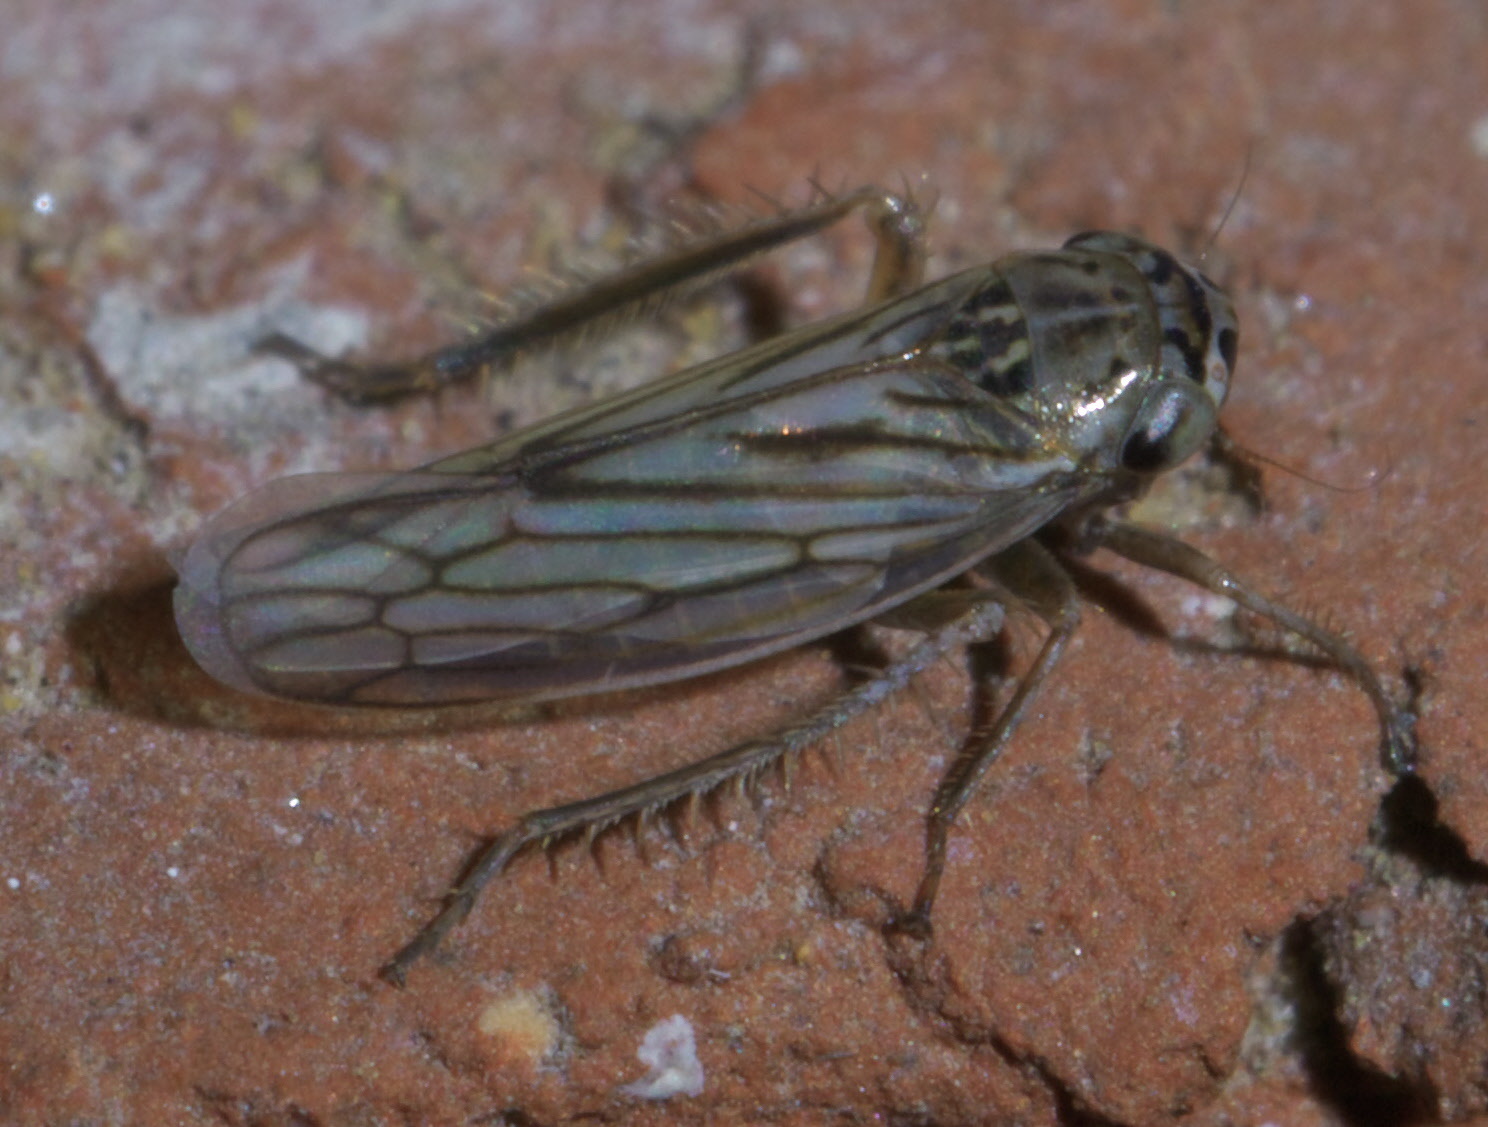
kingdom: Animalia
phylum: Arthropoda
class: Insecta
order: Hemiptera
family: Cicadellidae
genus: Exitianus
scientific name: Exitianus exitiosus
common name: Gray lawn leafhopper
